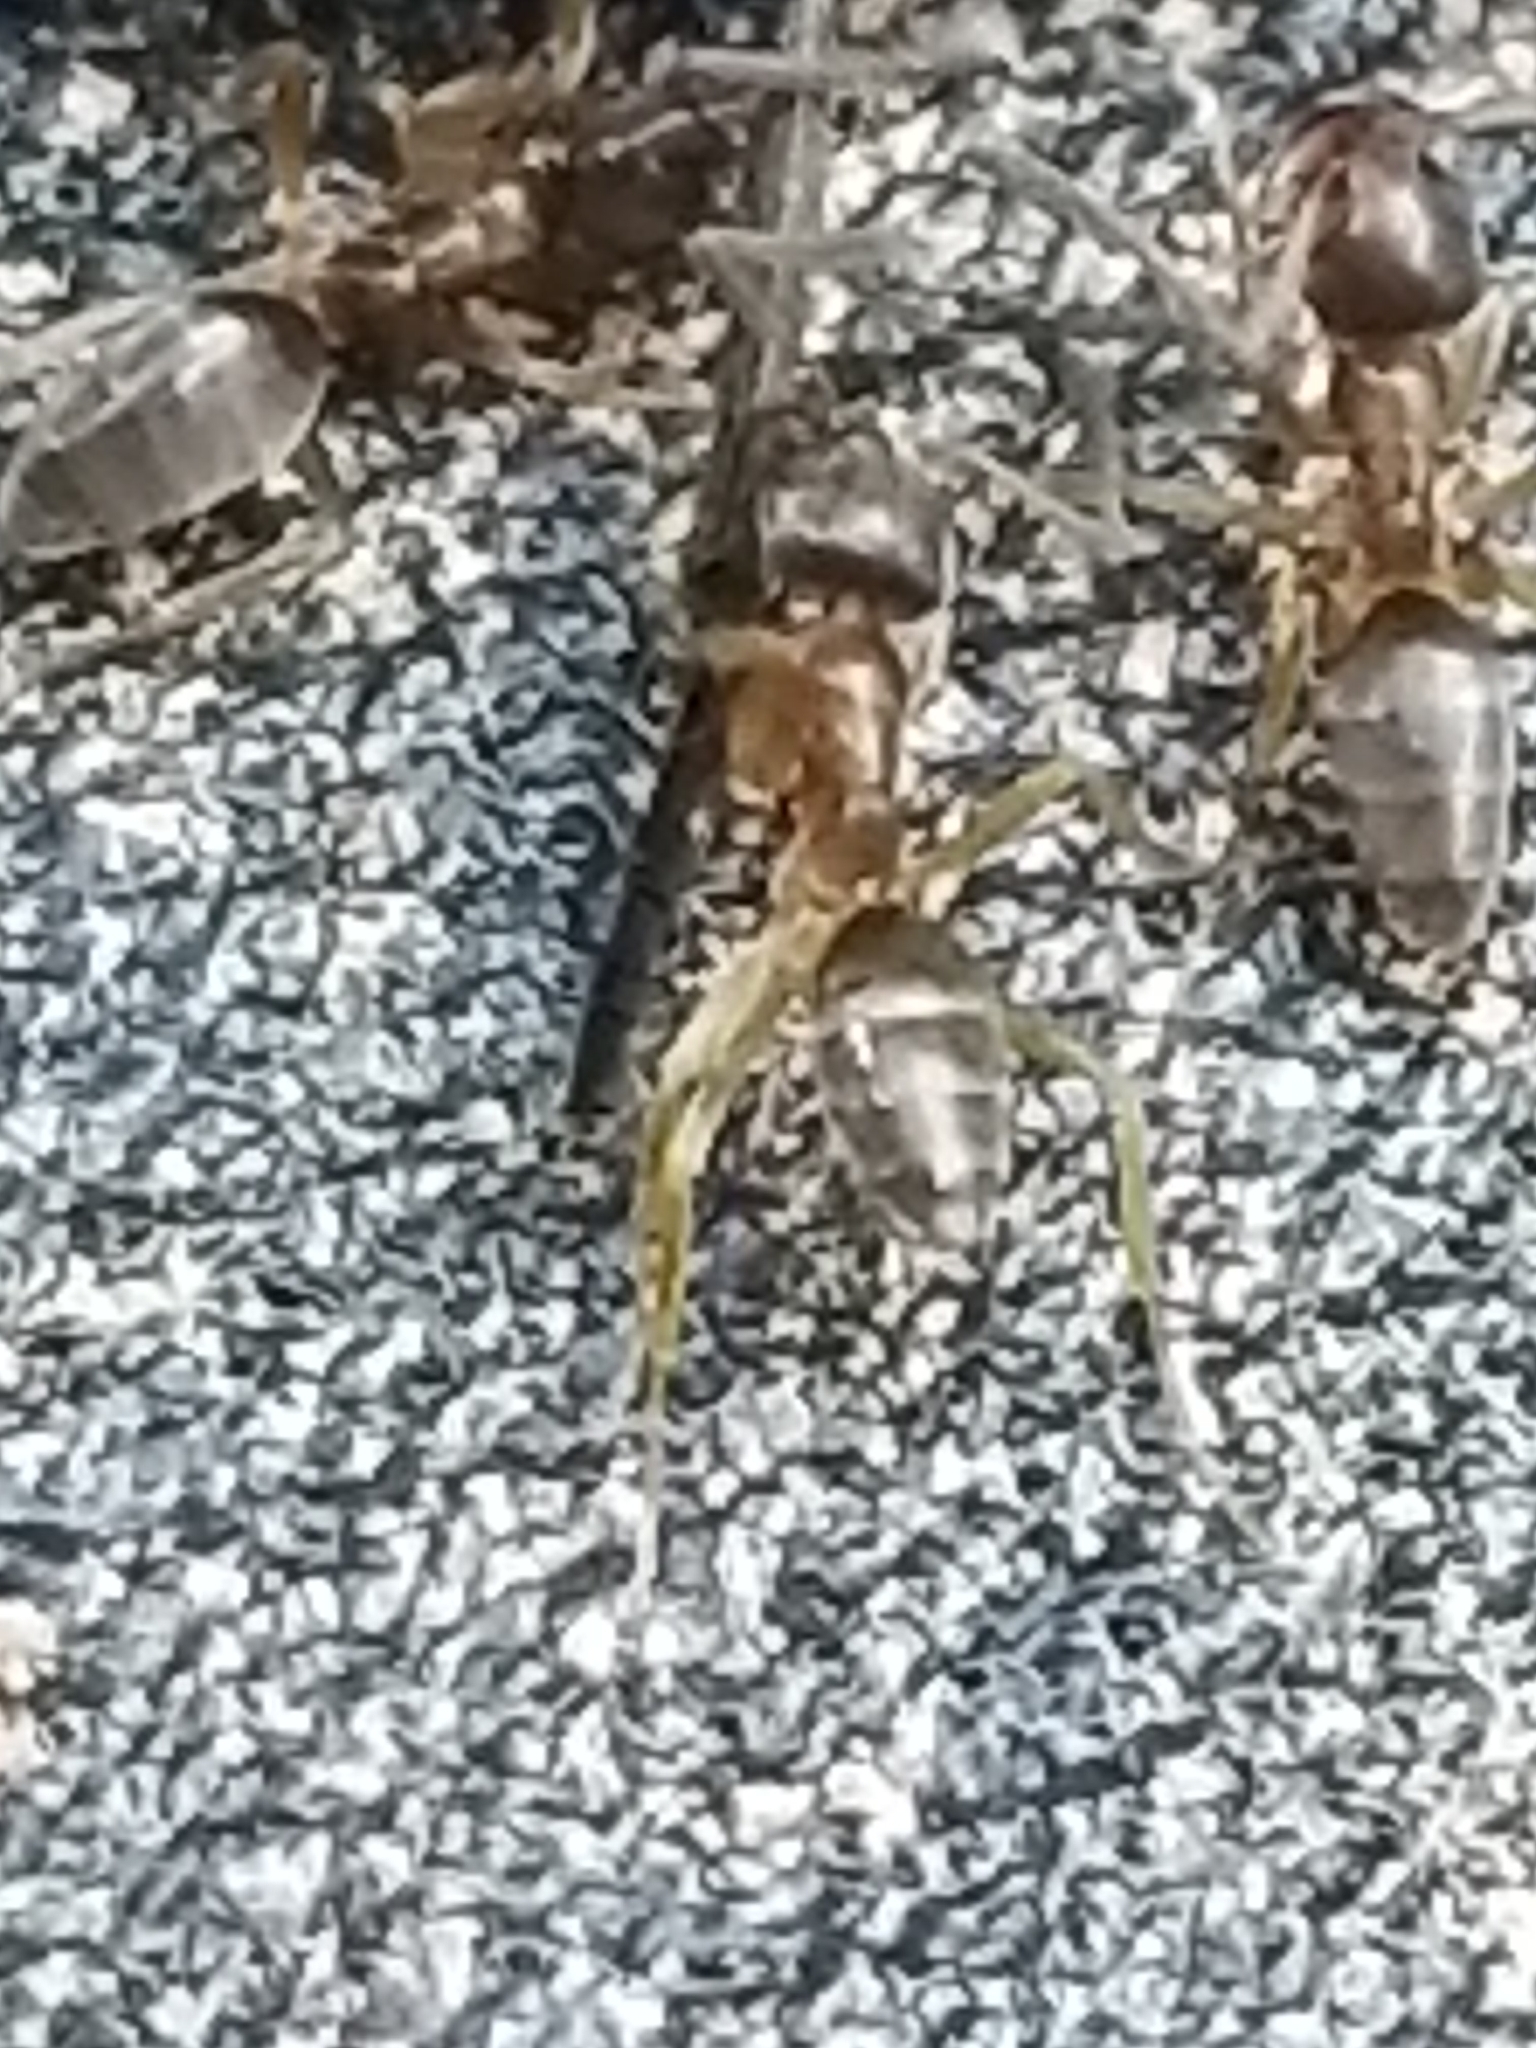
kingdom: Animalia
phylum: Arthropoda
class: Insecta
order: Hymenoptera
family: Formicidae
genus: Tapinoma
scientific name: Tapinoma sessile
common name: Odorous house ant
